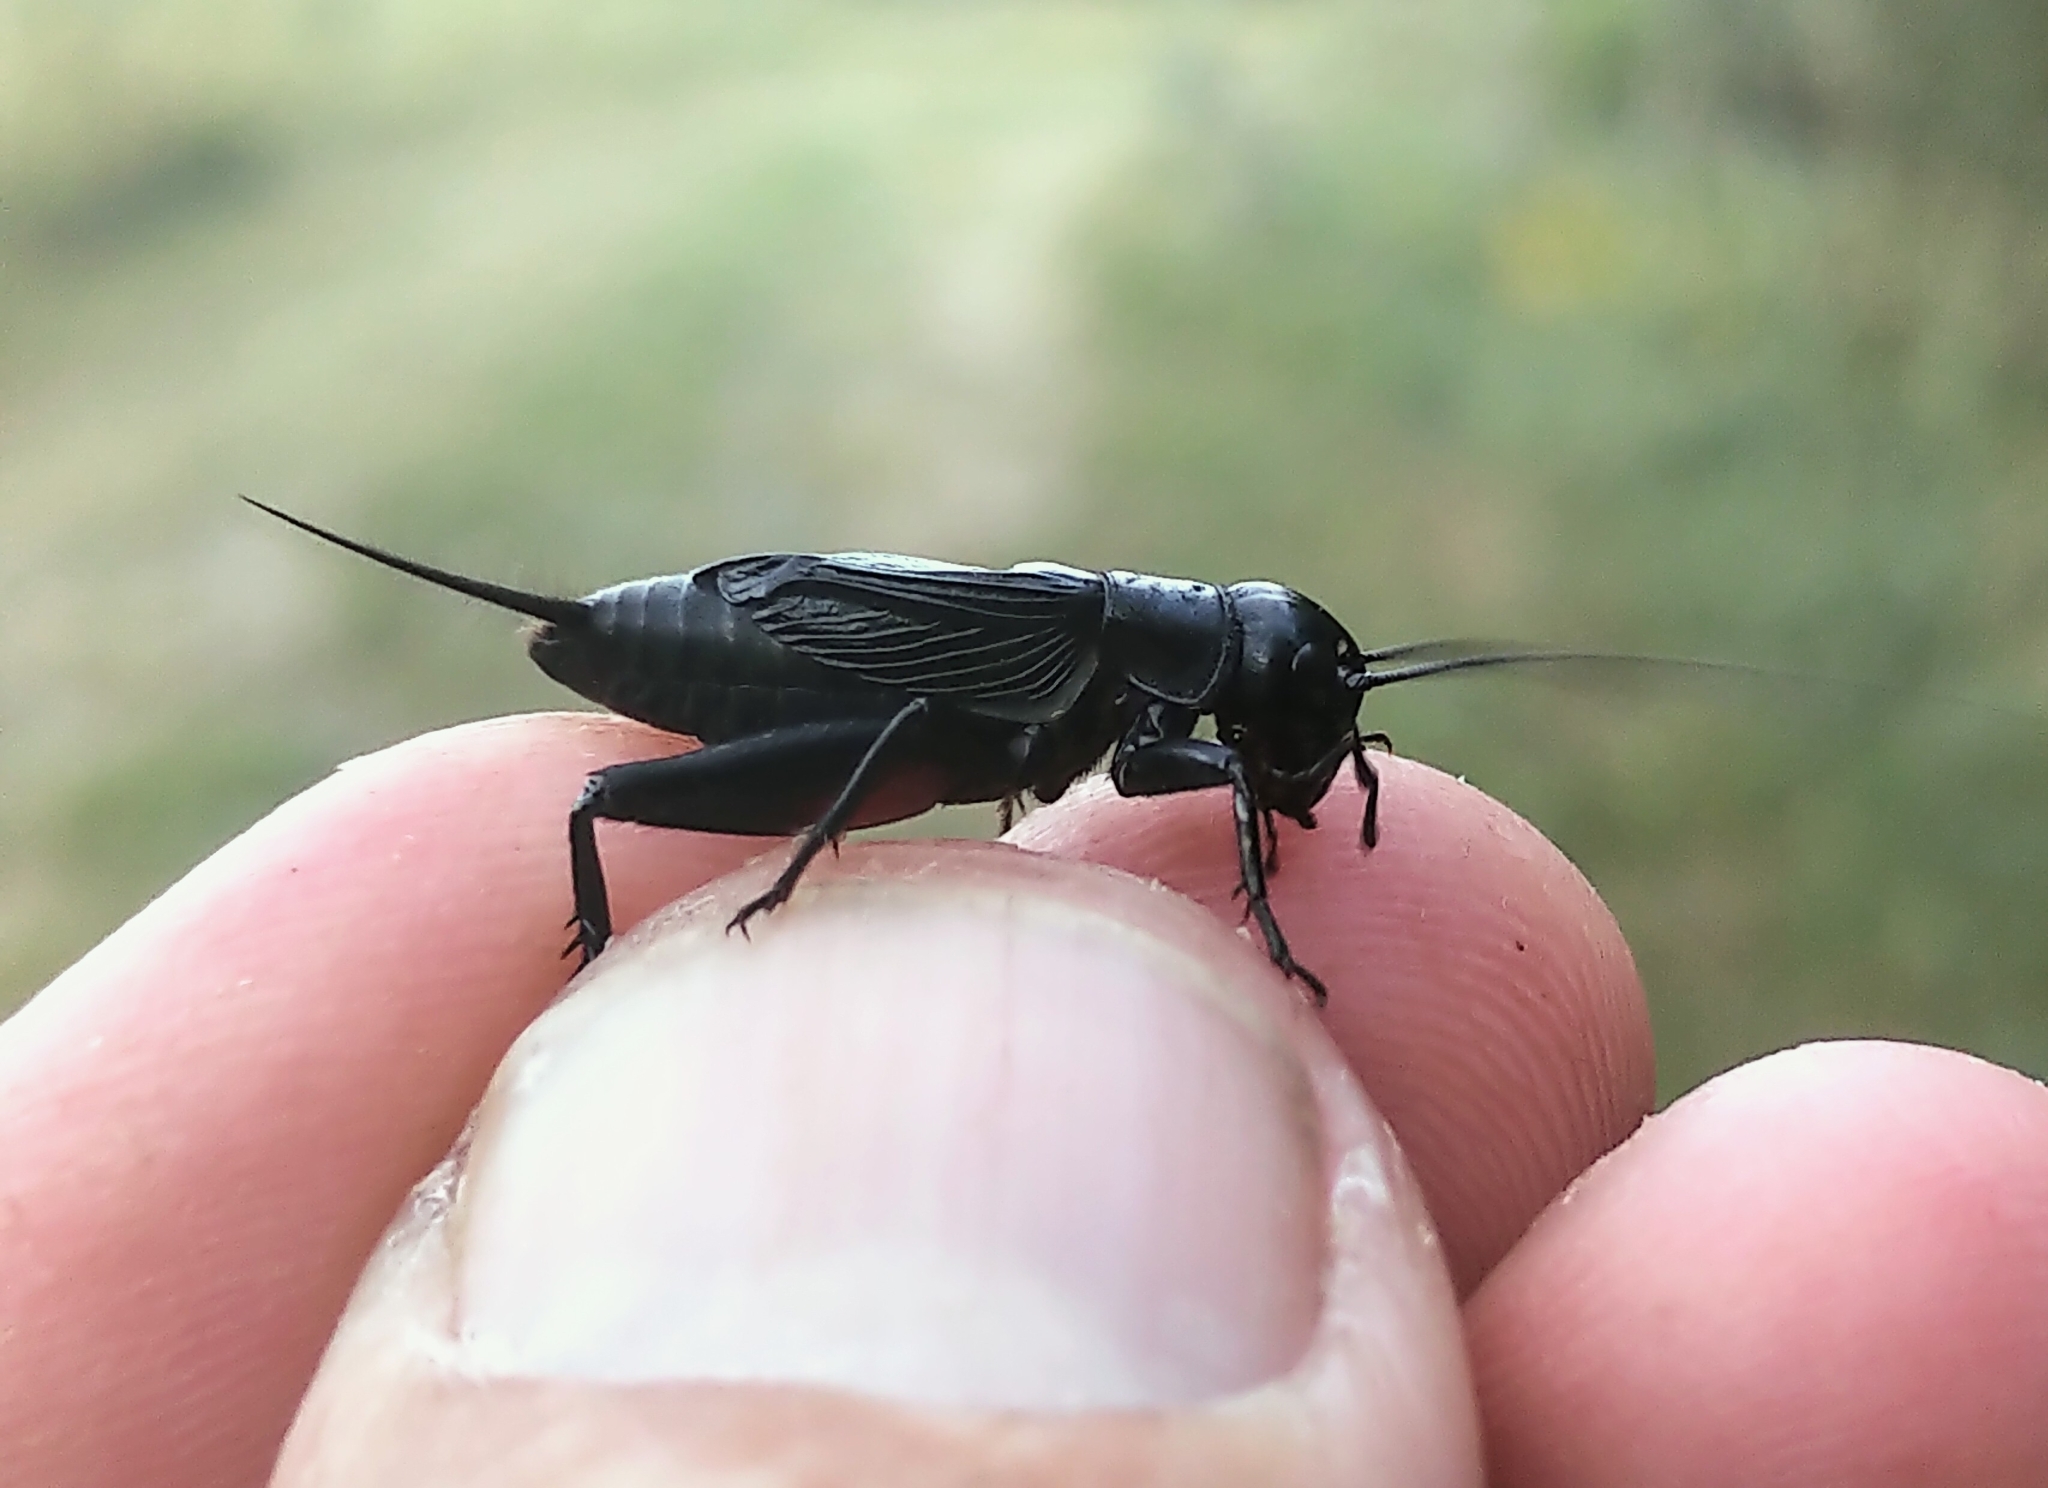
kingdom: Animalia
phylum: Arthropoda
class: Insecta
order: Orthoptera
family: Gryllidae
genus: Gryllus
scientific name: Gryllus pennsylvanicus
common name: Fall field cricket
